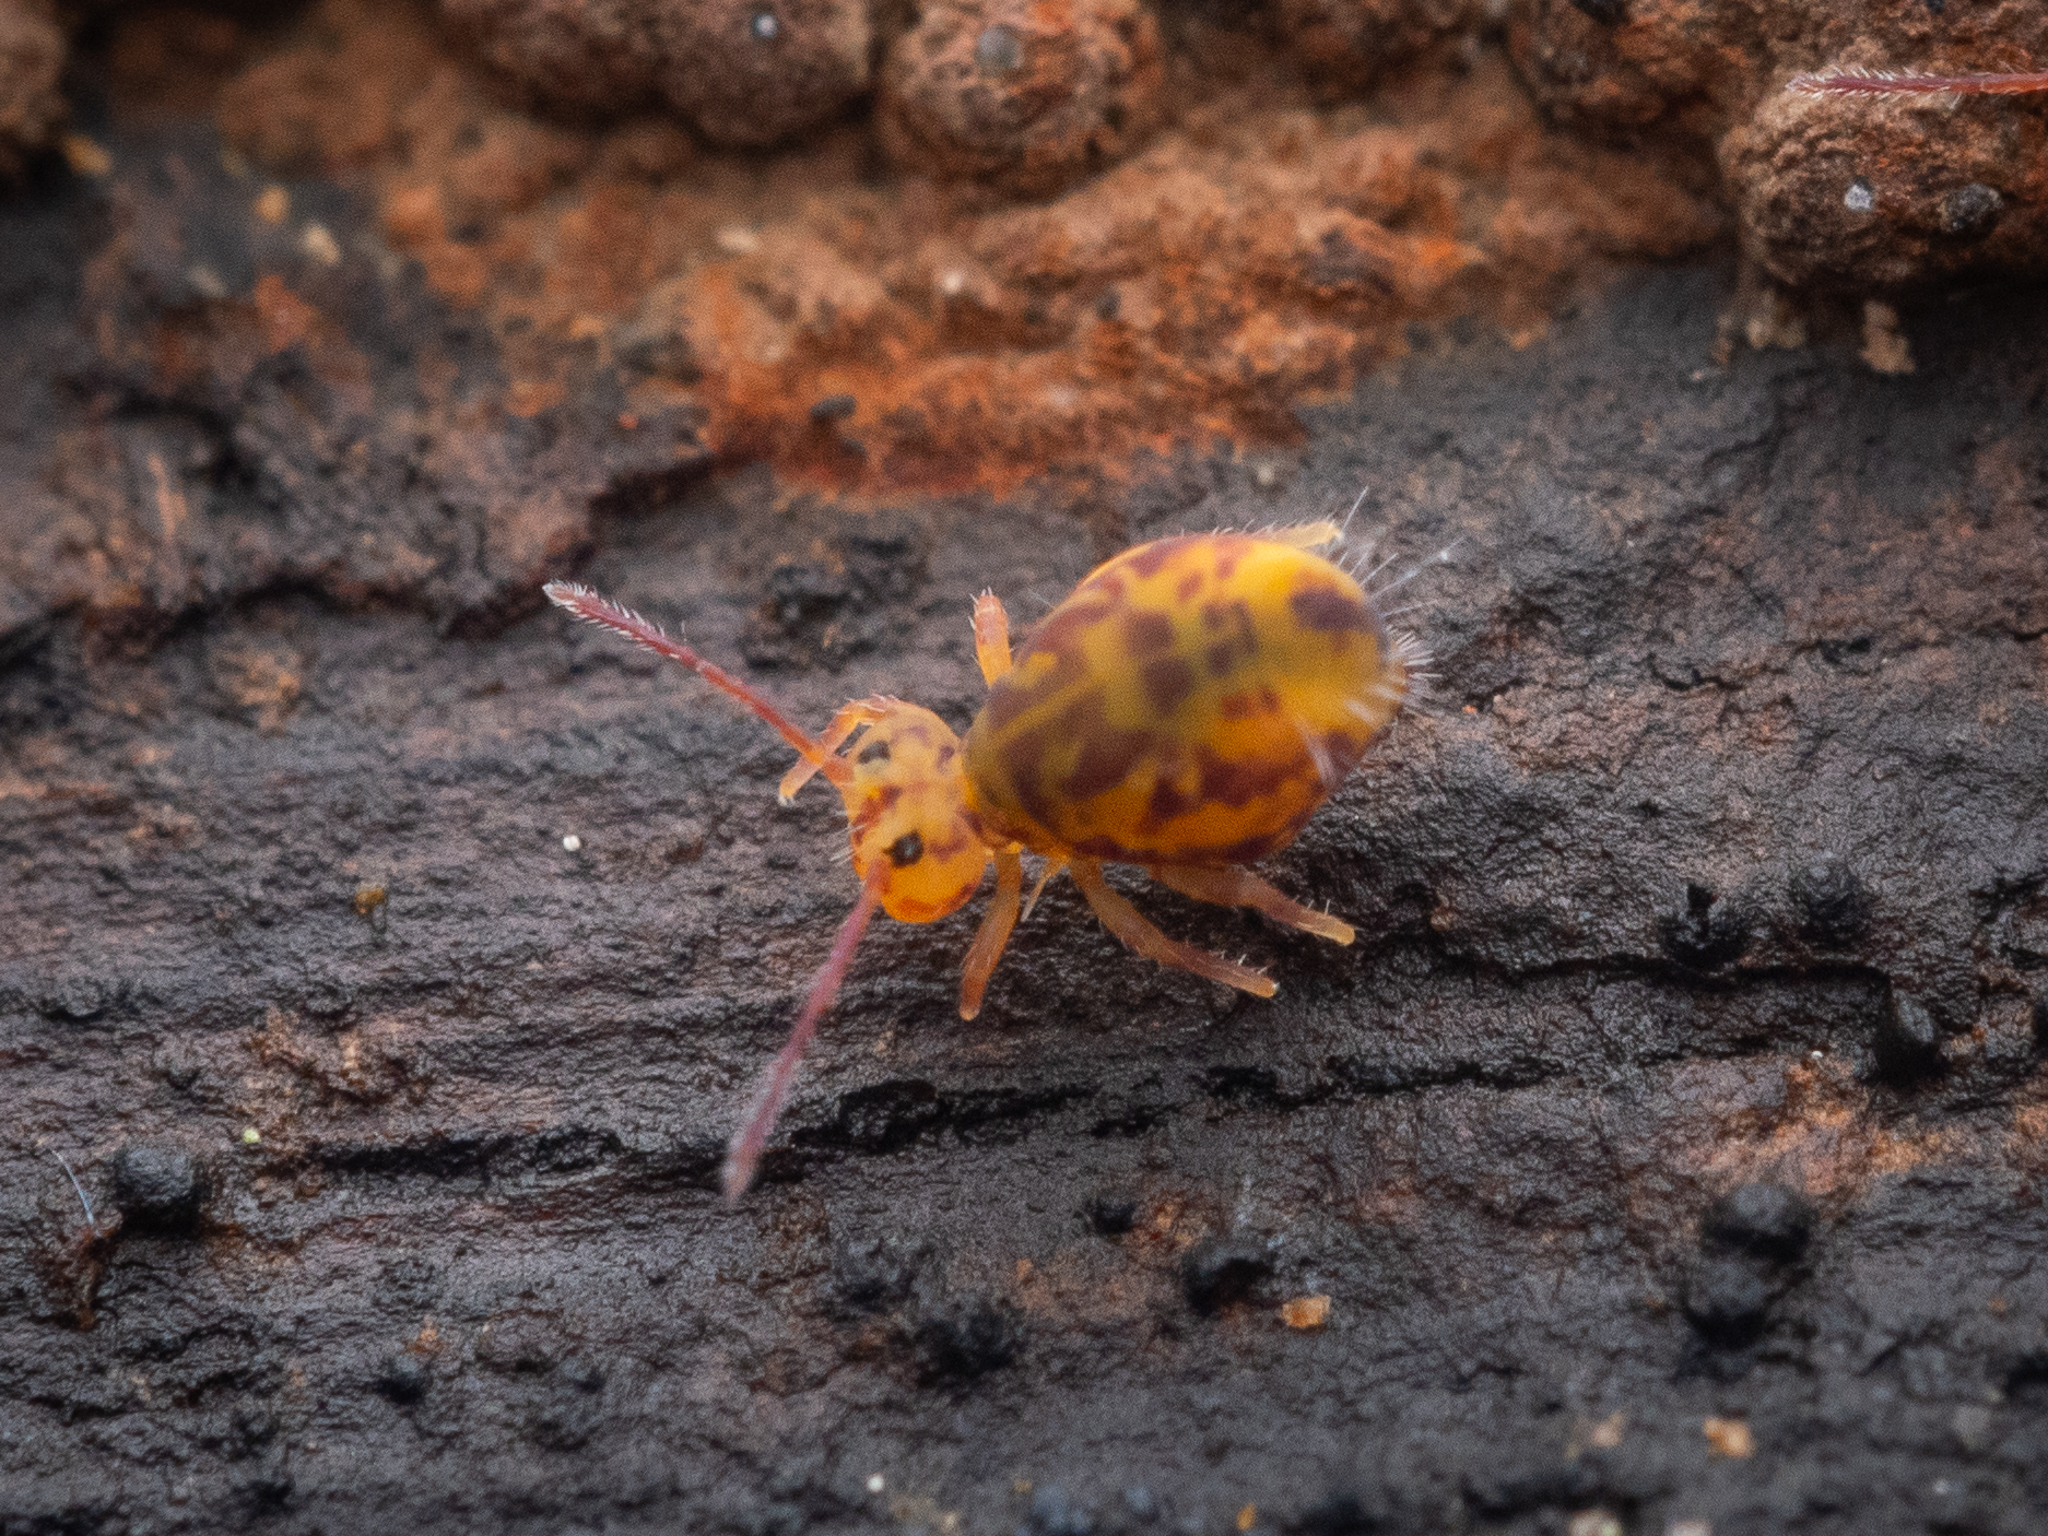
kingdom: Animalia
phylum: Arthropoda
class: Collembola
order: Symphypleona
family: Dicyrtomidae
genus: Dicyrtomina
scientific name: Dicyrtomina ornata
